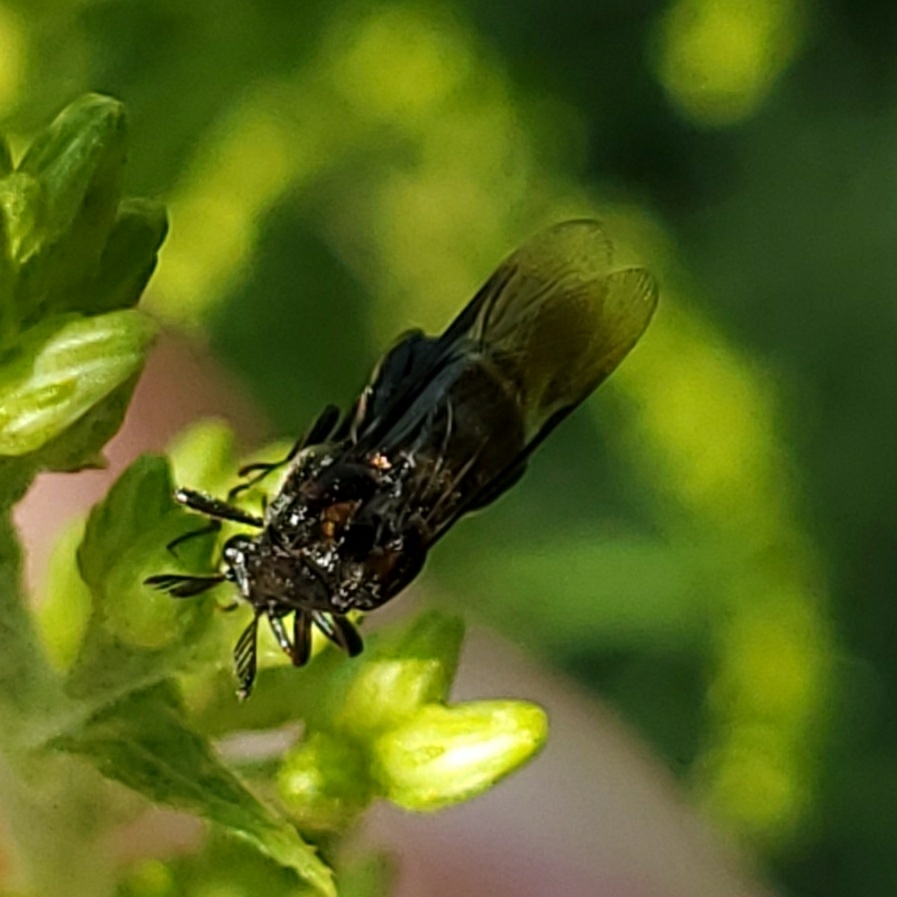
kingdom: Animalia
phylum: Arthropoda
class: Insecta
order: Coleoptera
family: Ripiphoridae
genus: Ripiphorus
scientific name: Ripiphorus
